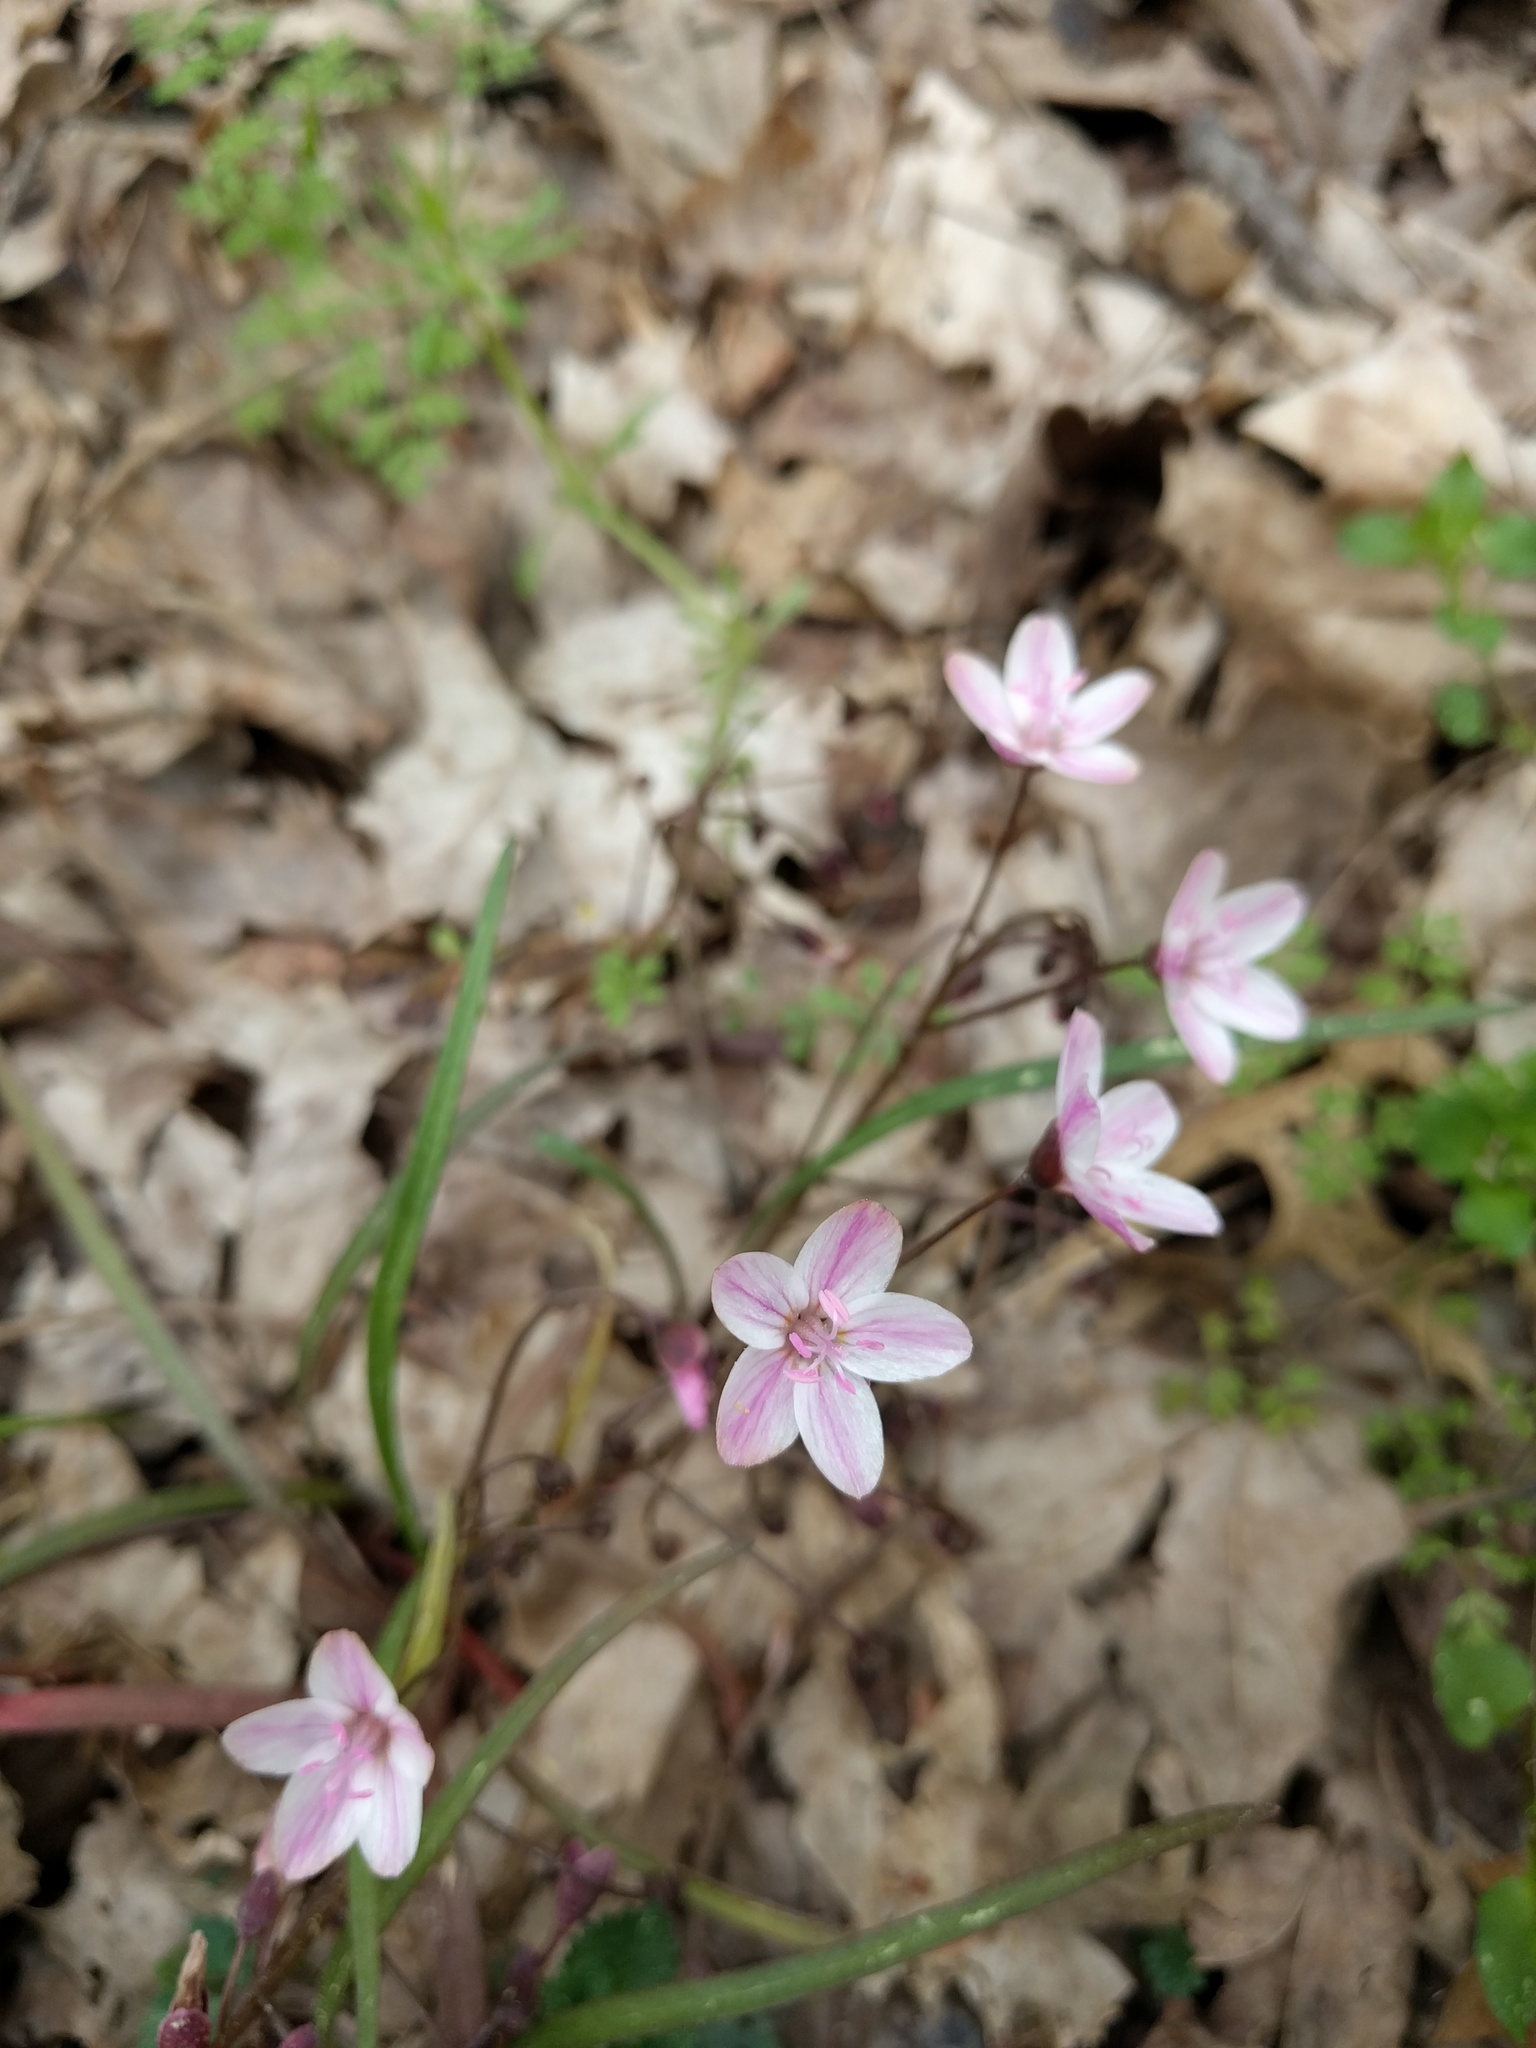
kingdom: Plantae
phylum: Tracheophyta
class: Magnoliopsida
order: Caryophyllales
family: Montiaceae
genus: Claytonia
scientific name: Claytonia virginica
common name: Virginia springbeauty
